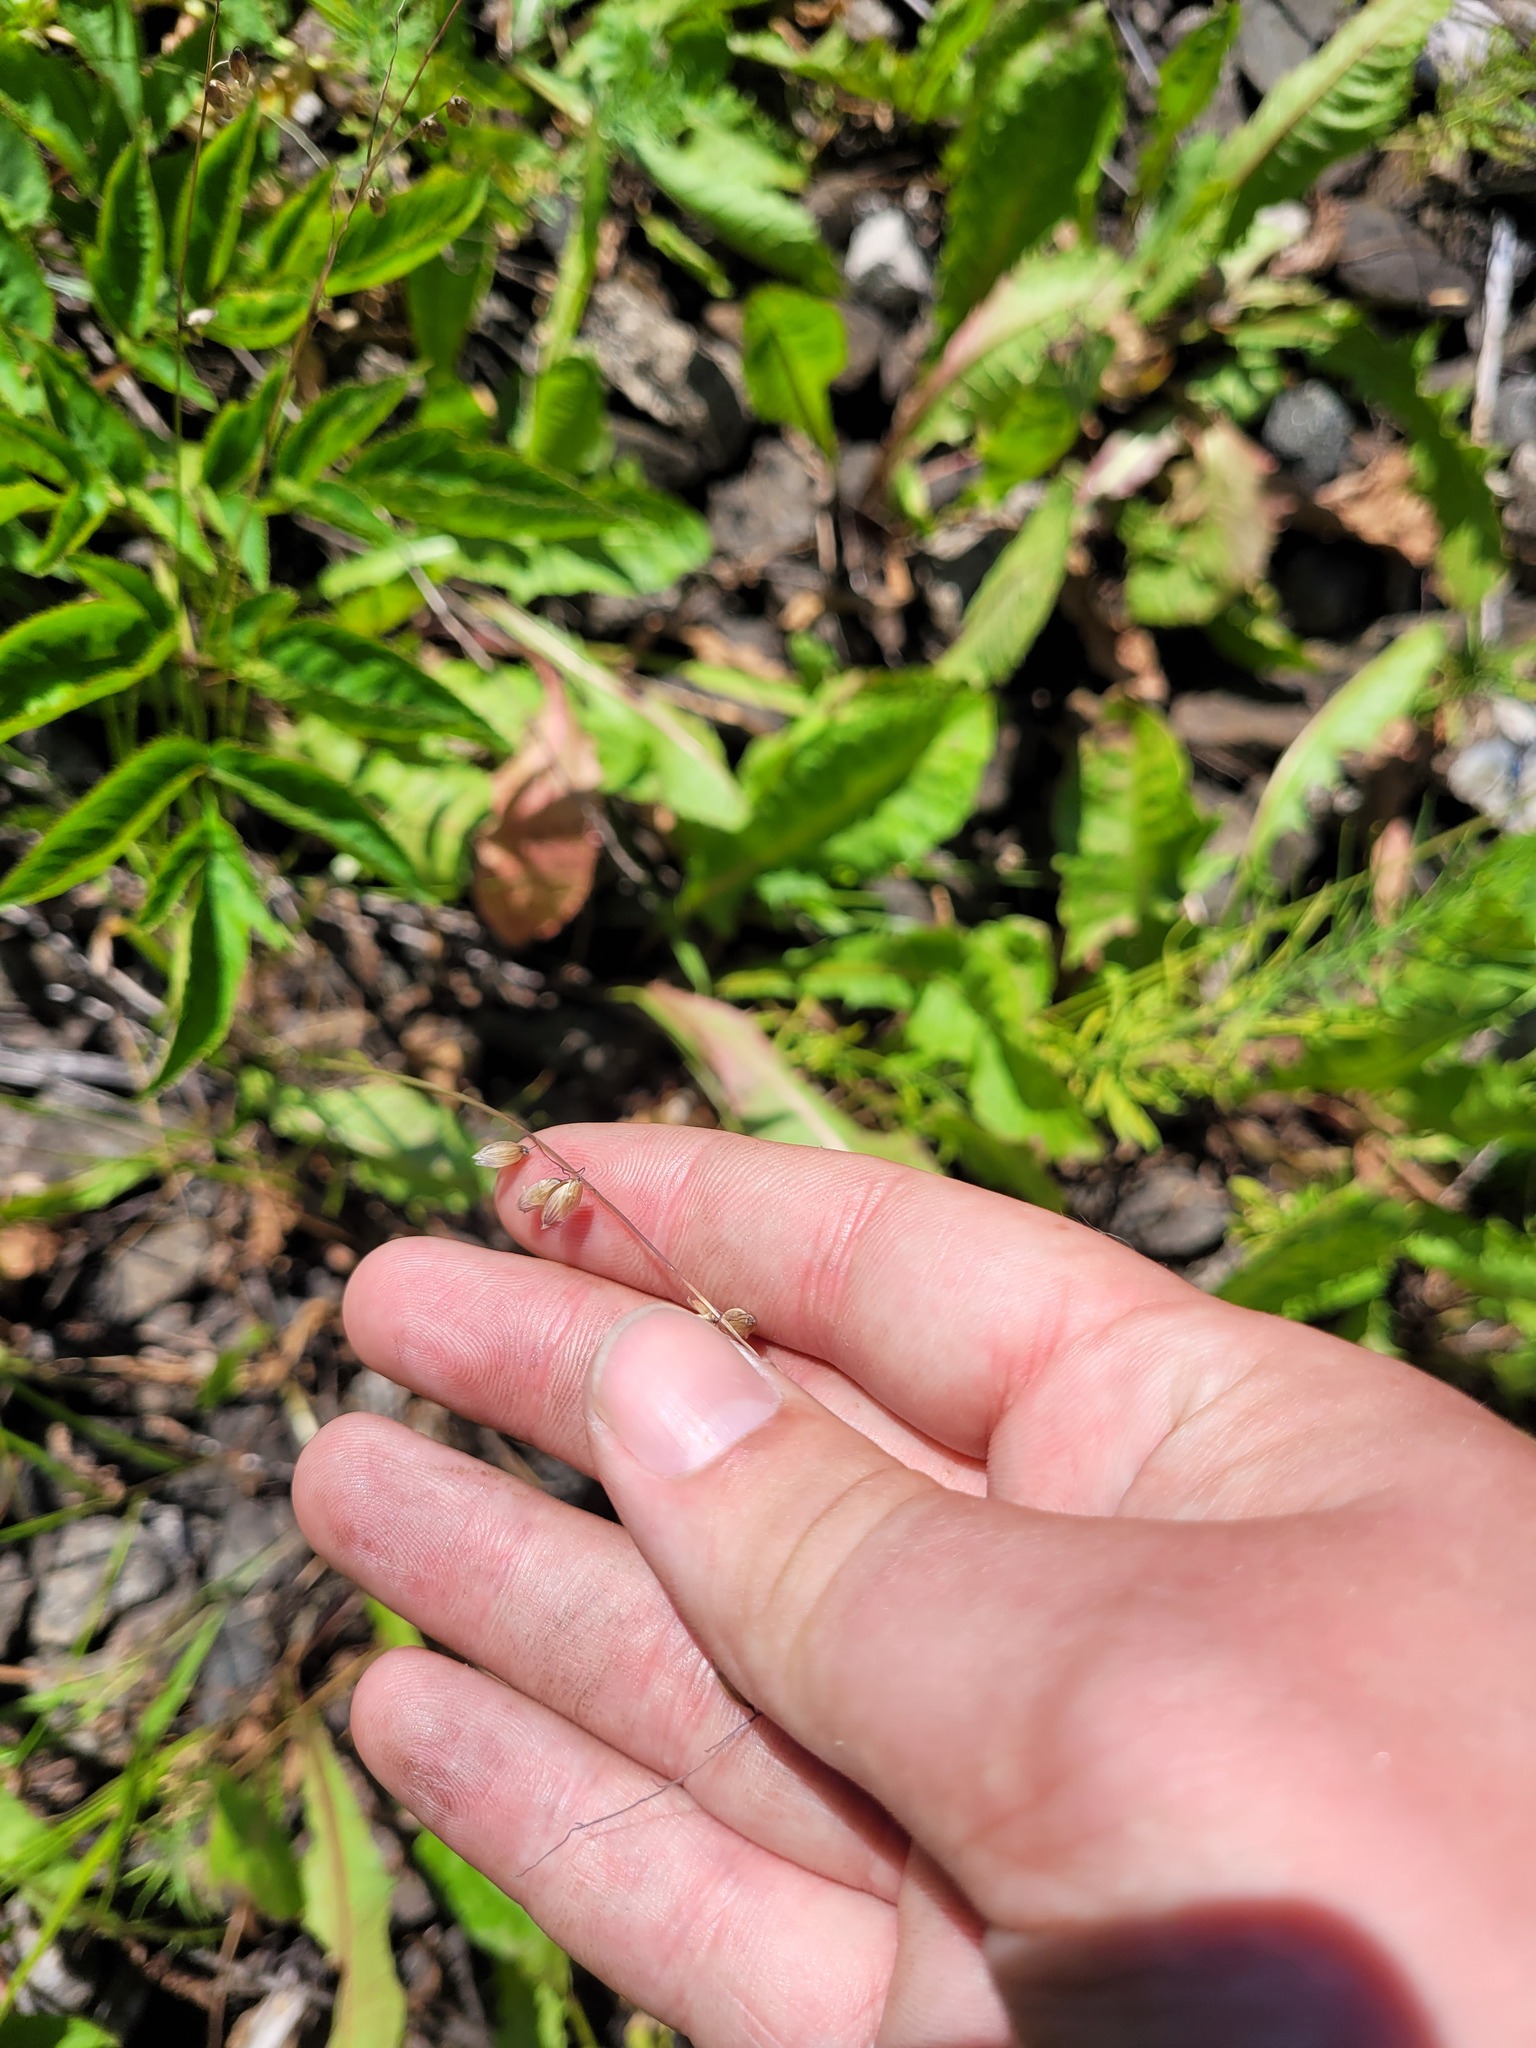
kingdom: Plantae
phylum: Tracheophyta
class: Liliopsida
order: Poales
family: Poaceae
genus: Melica
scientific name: Melica nutans
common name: Mountain melick
